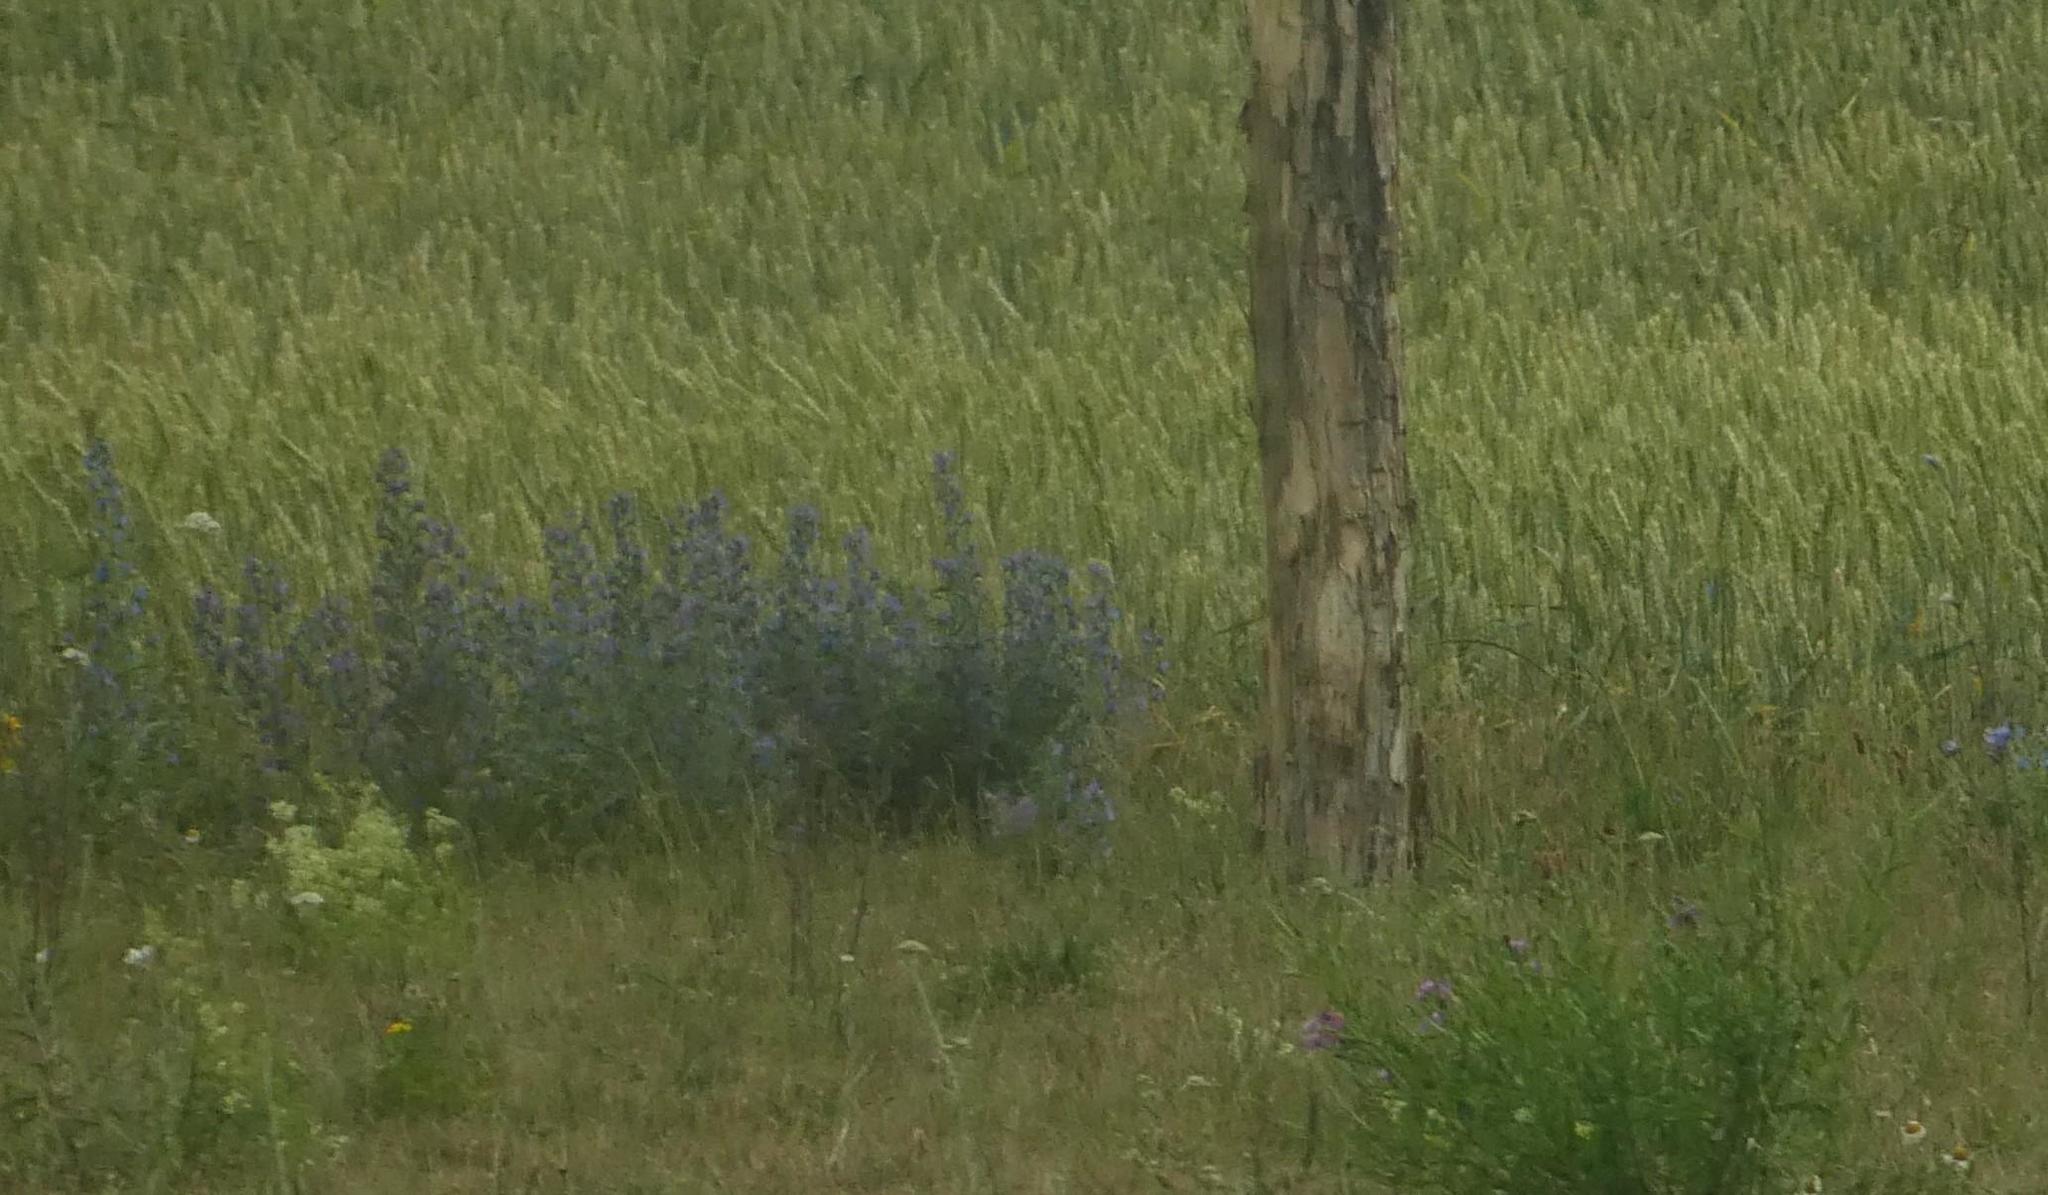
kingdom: Plantae
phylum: Tracheophyta
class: Magnoliopsida
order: Boraginales
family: Boraginaceae
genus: Echium
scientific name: Echium vulgare
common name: Common viper's bugloss
